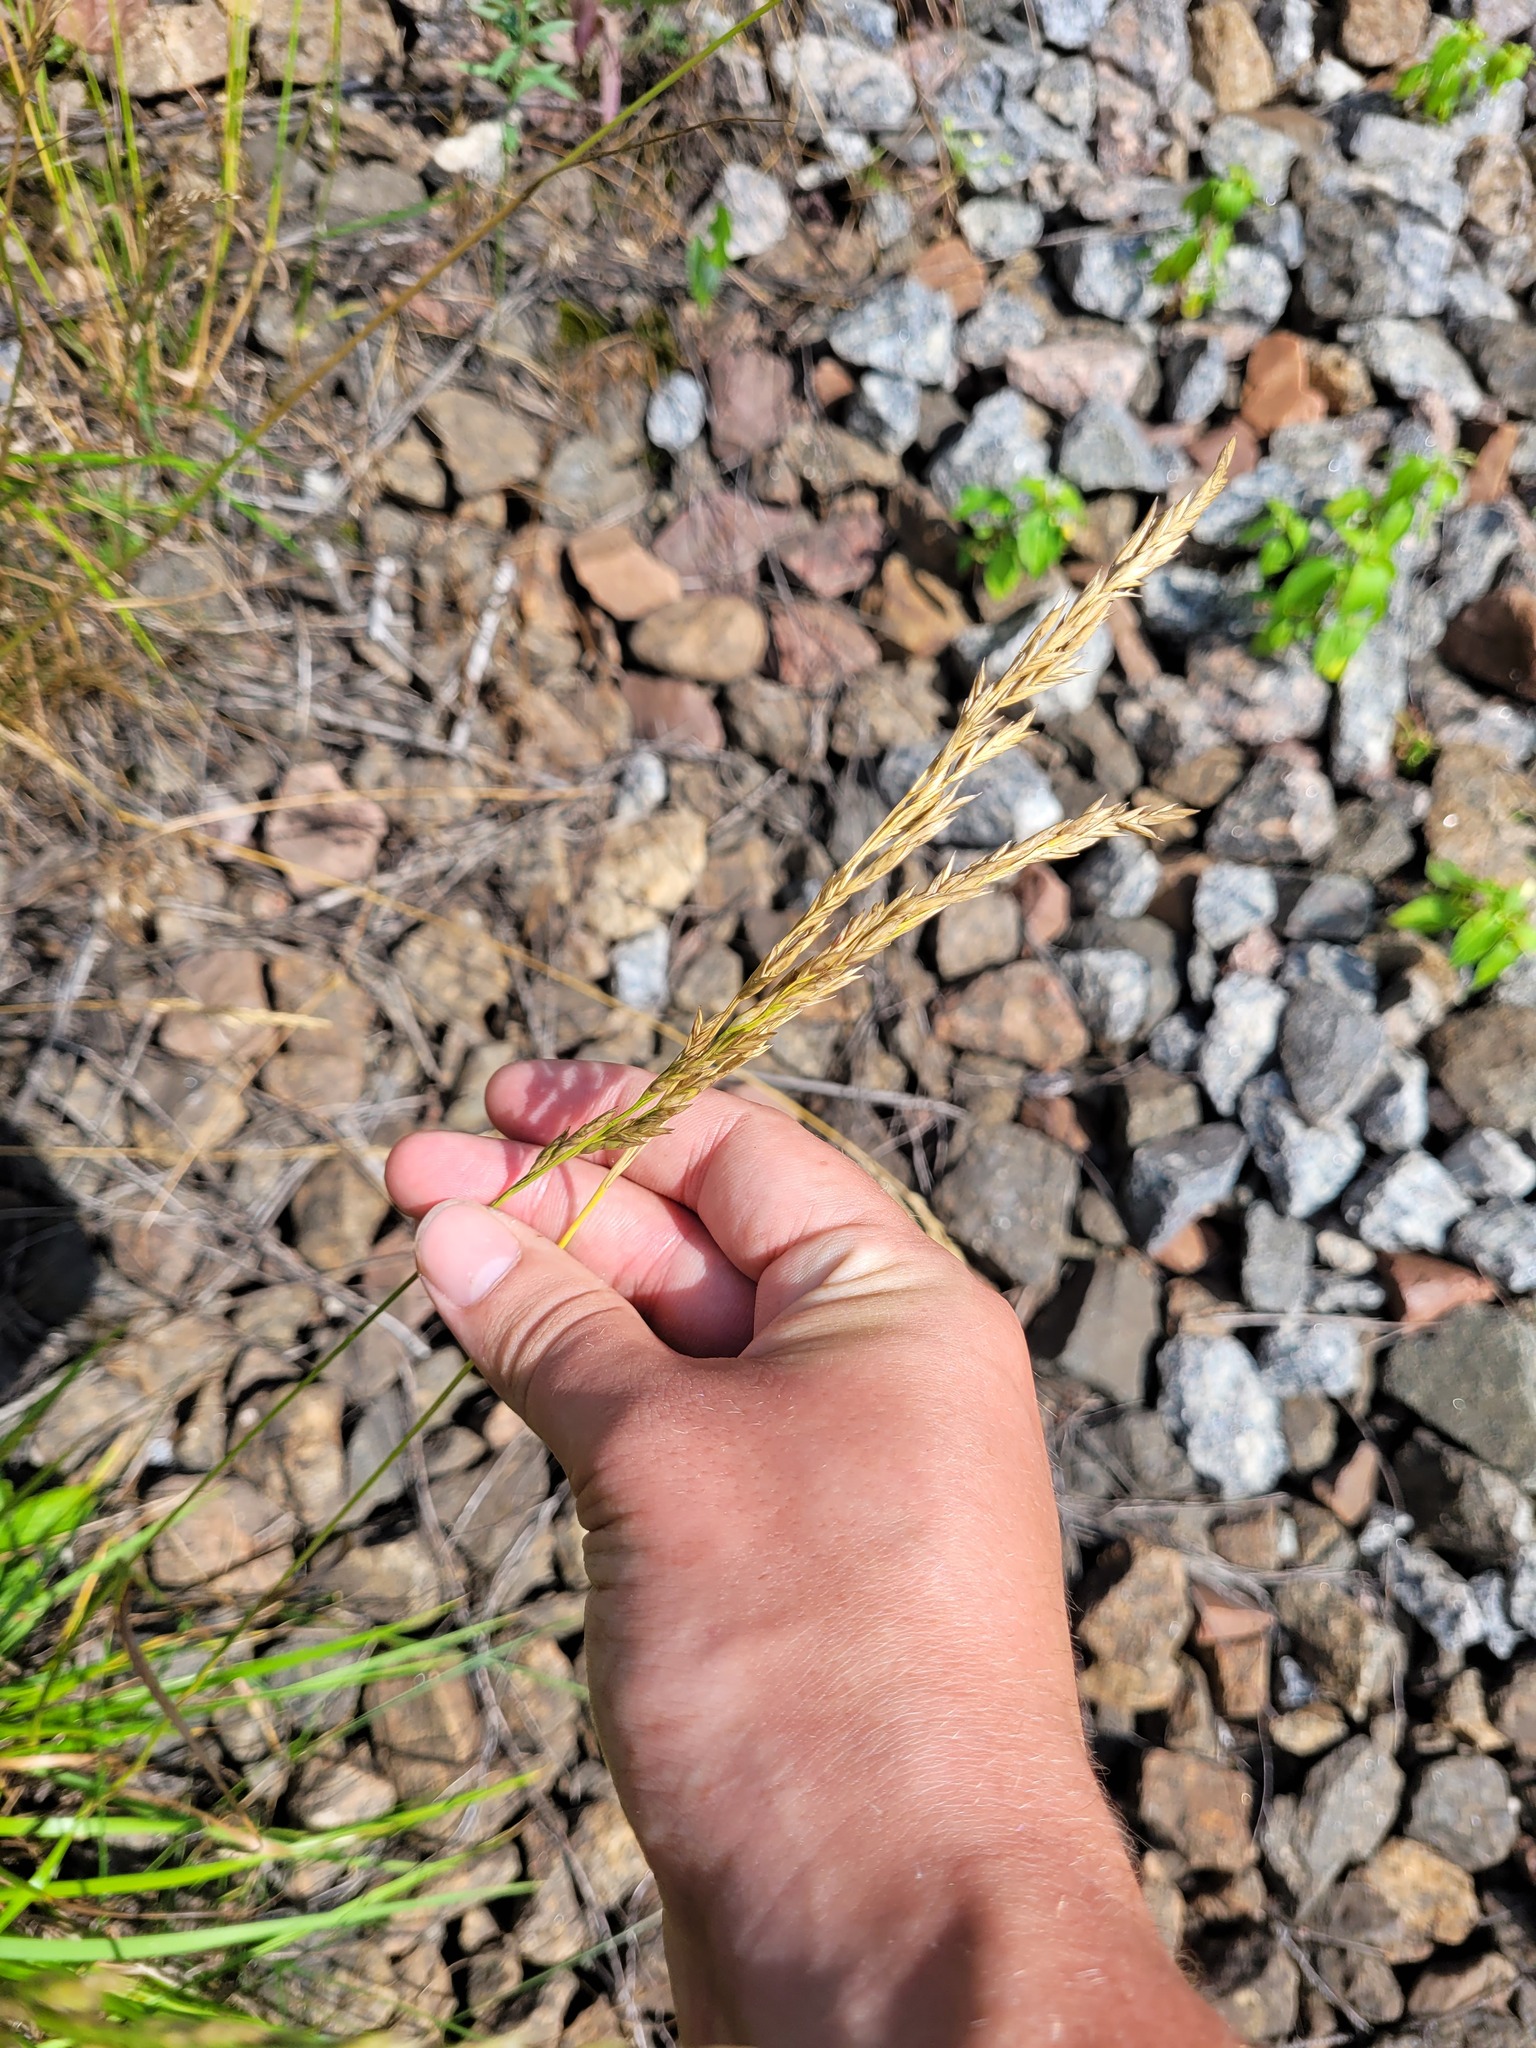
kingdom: Plantae
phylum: Tracheophyta
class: Liliopsida
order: Poales
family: Poaceae
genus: Lolium
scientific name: Lolium arundinaceum
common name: Reed fescue
